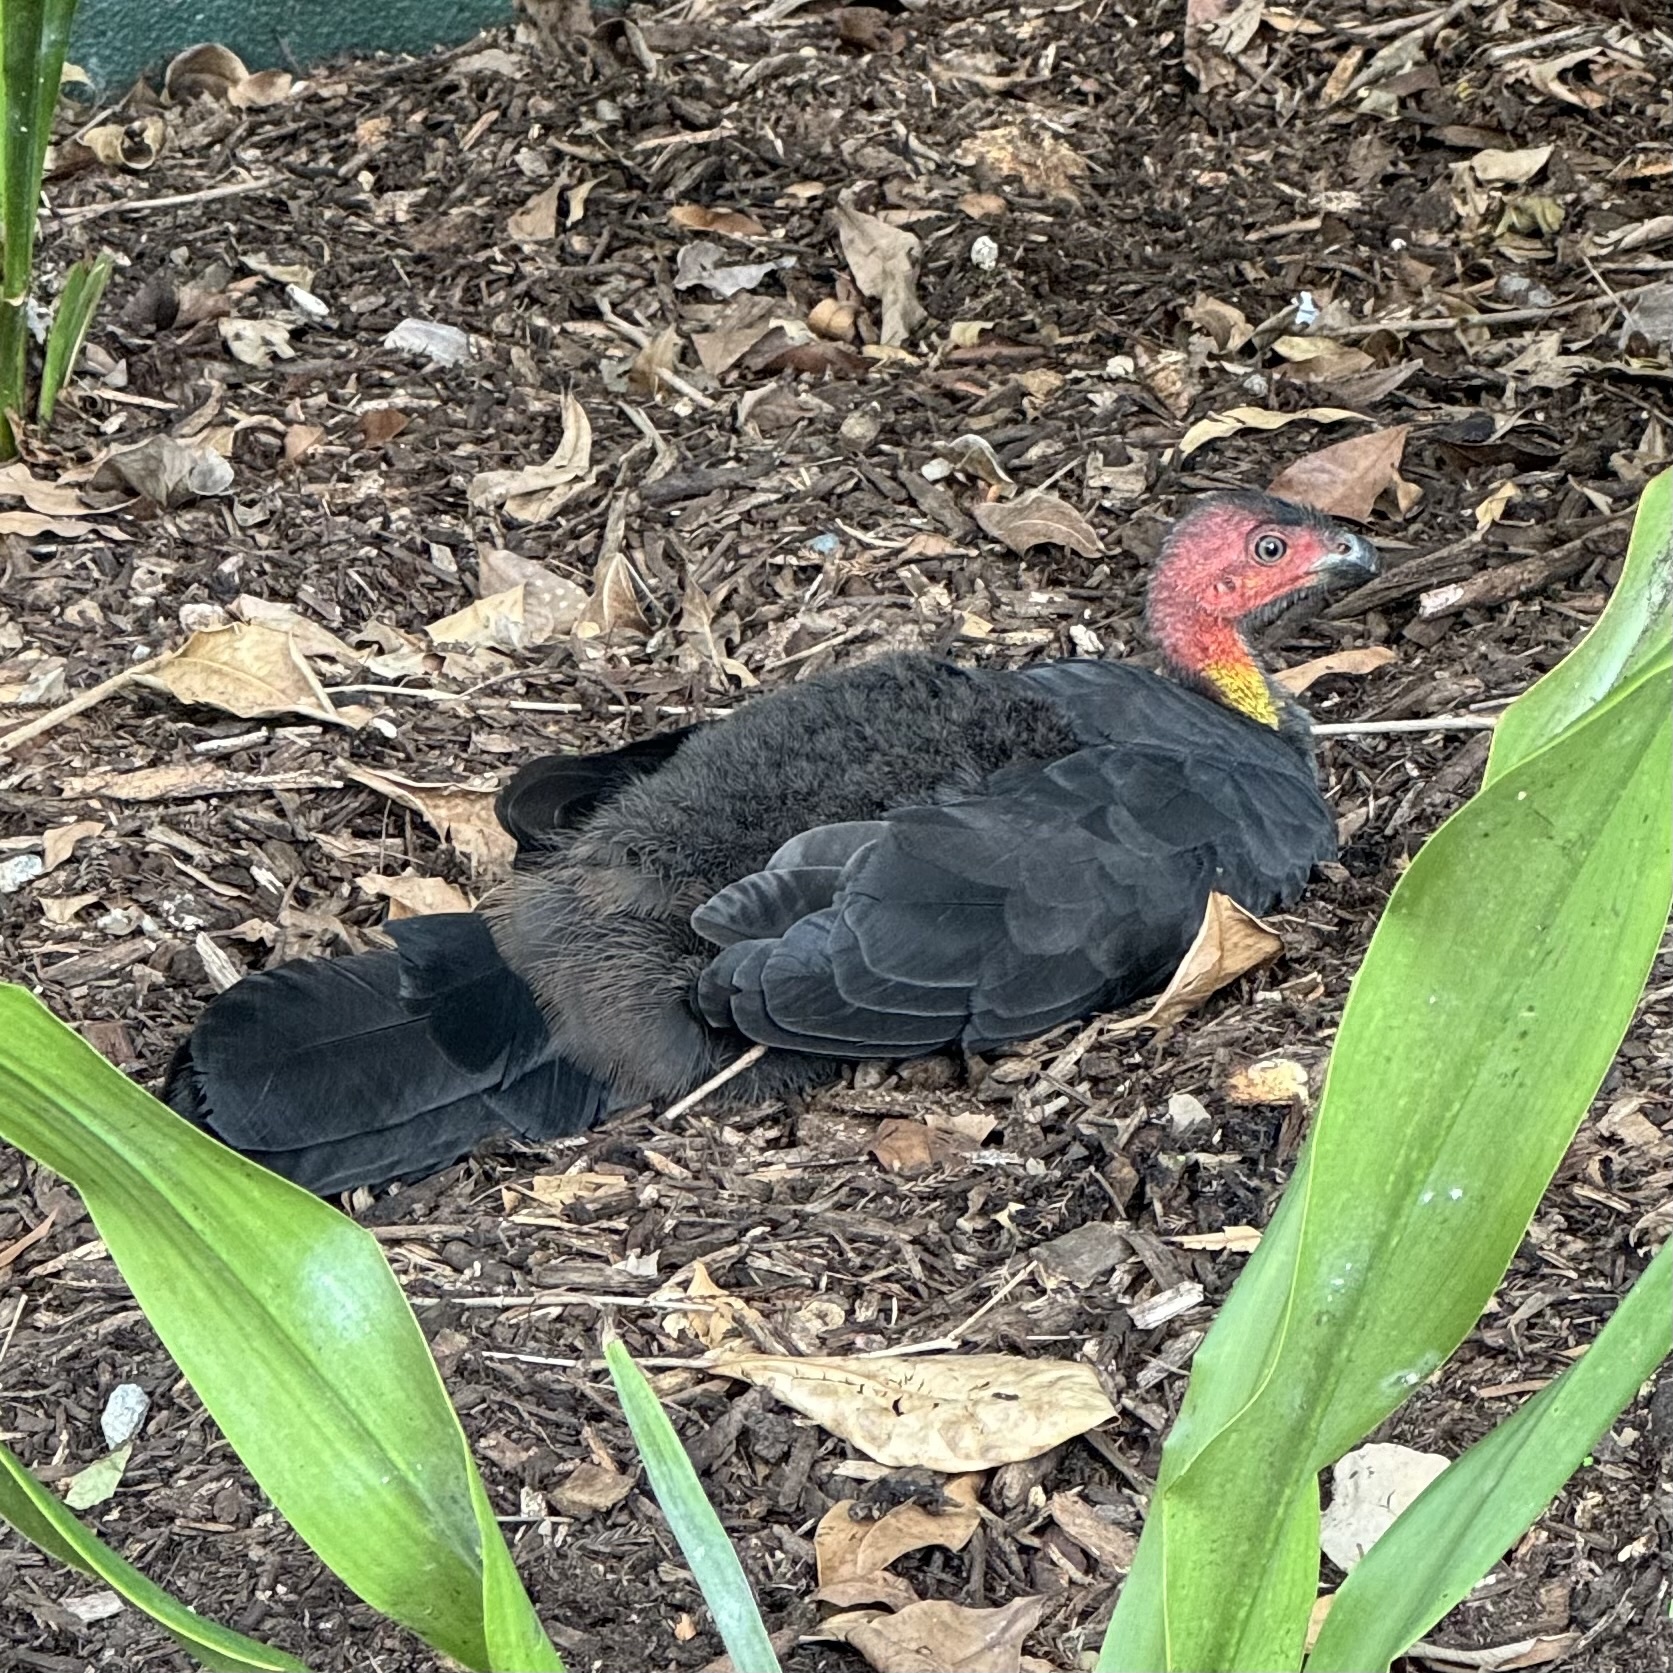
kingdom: Animalia
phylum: Chordata
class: Aves
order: Galliformes
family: Megapodiidae
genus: Alectura
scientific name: Alectura lathami
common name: Australian brushturkey
